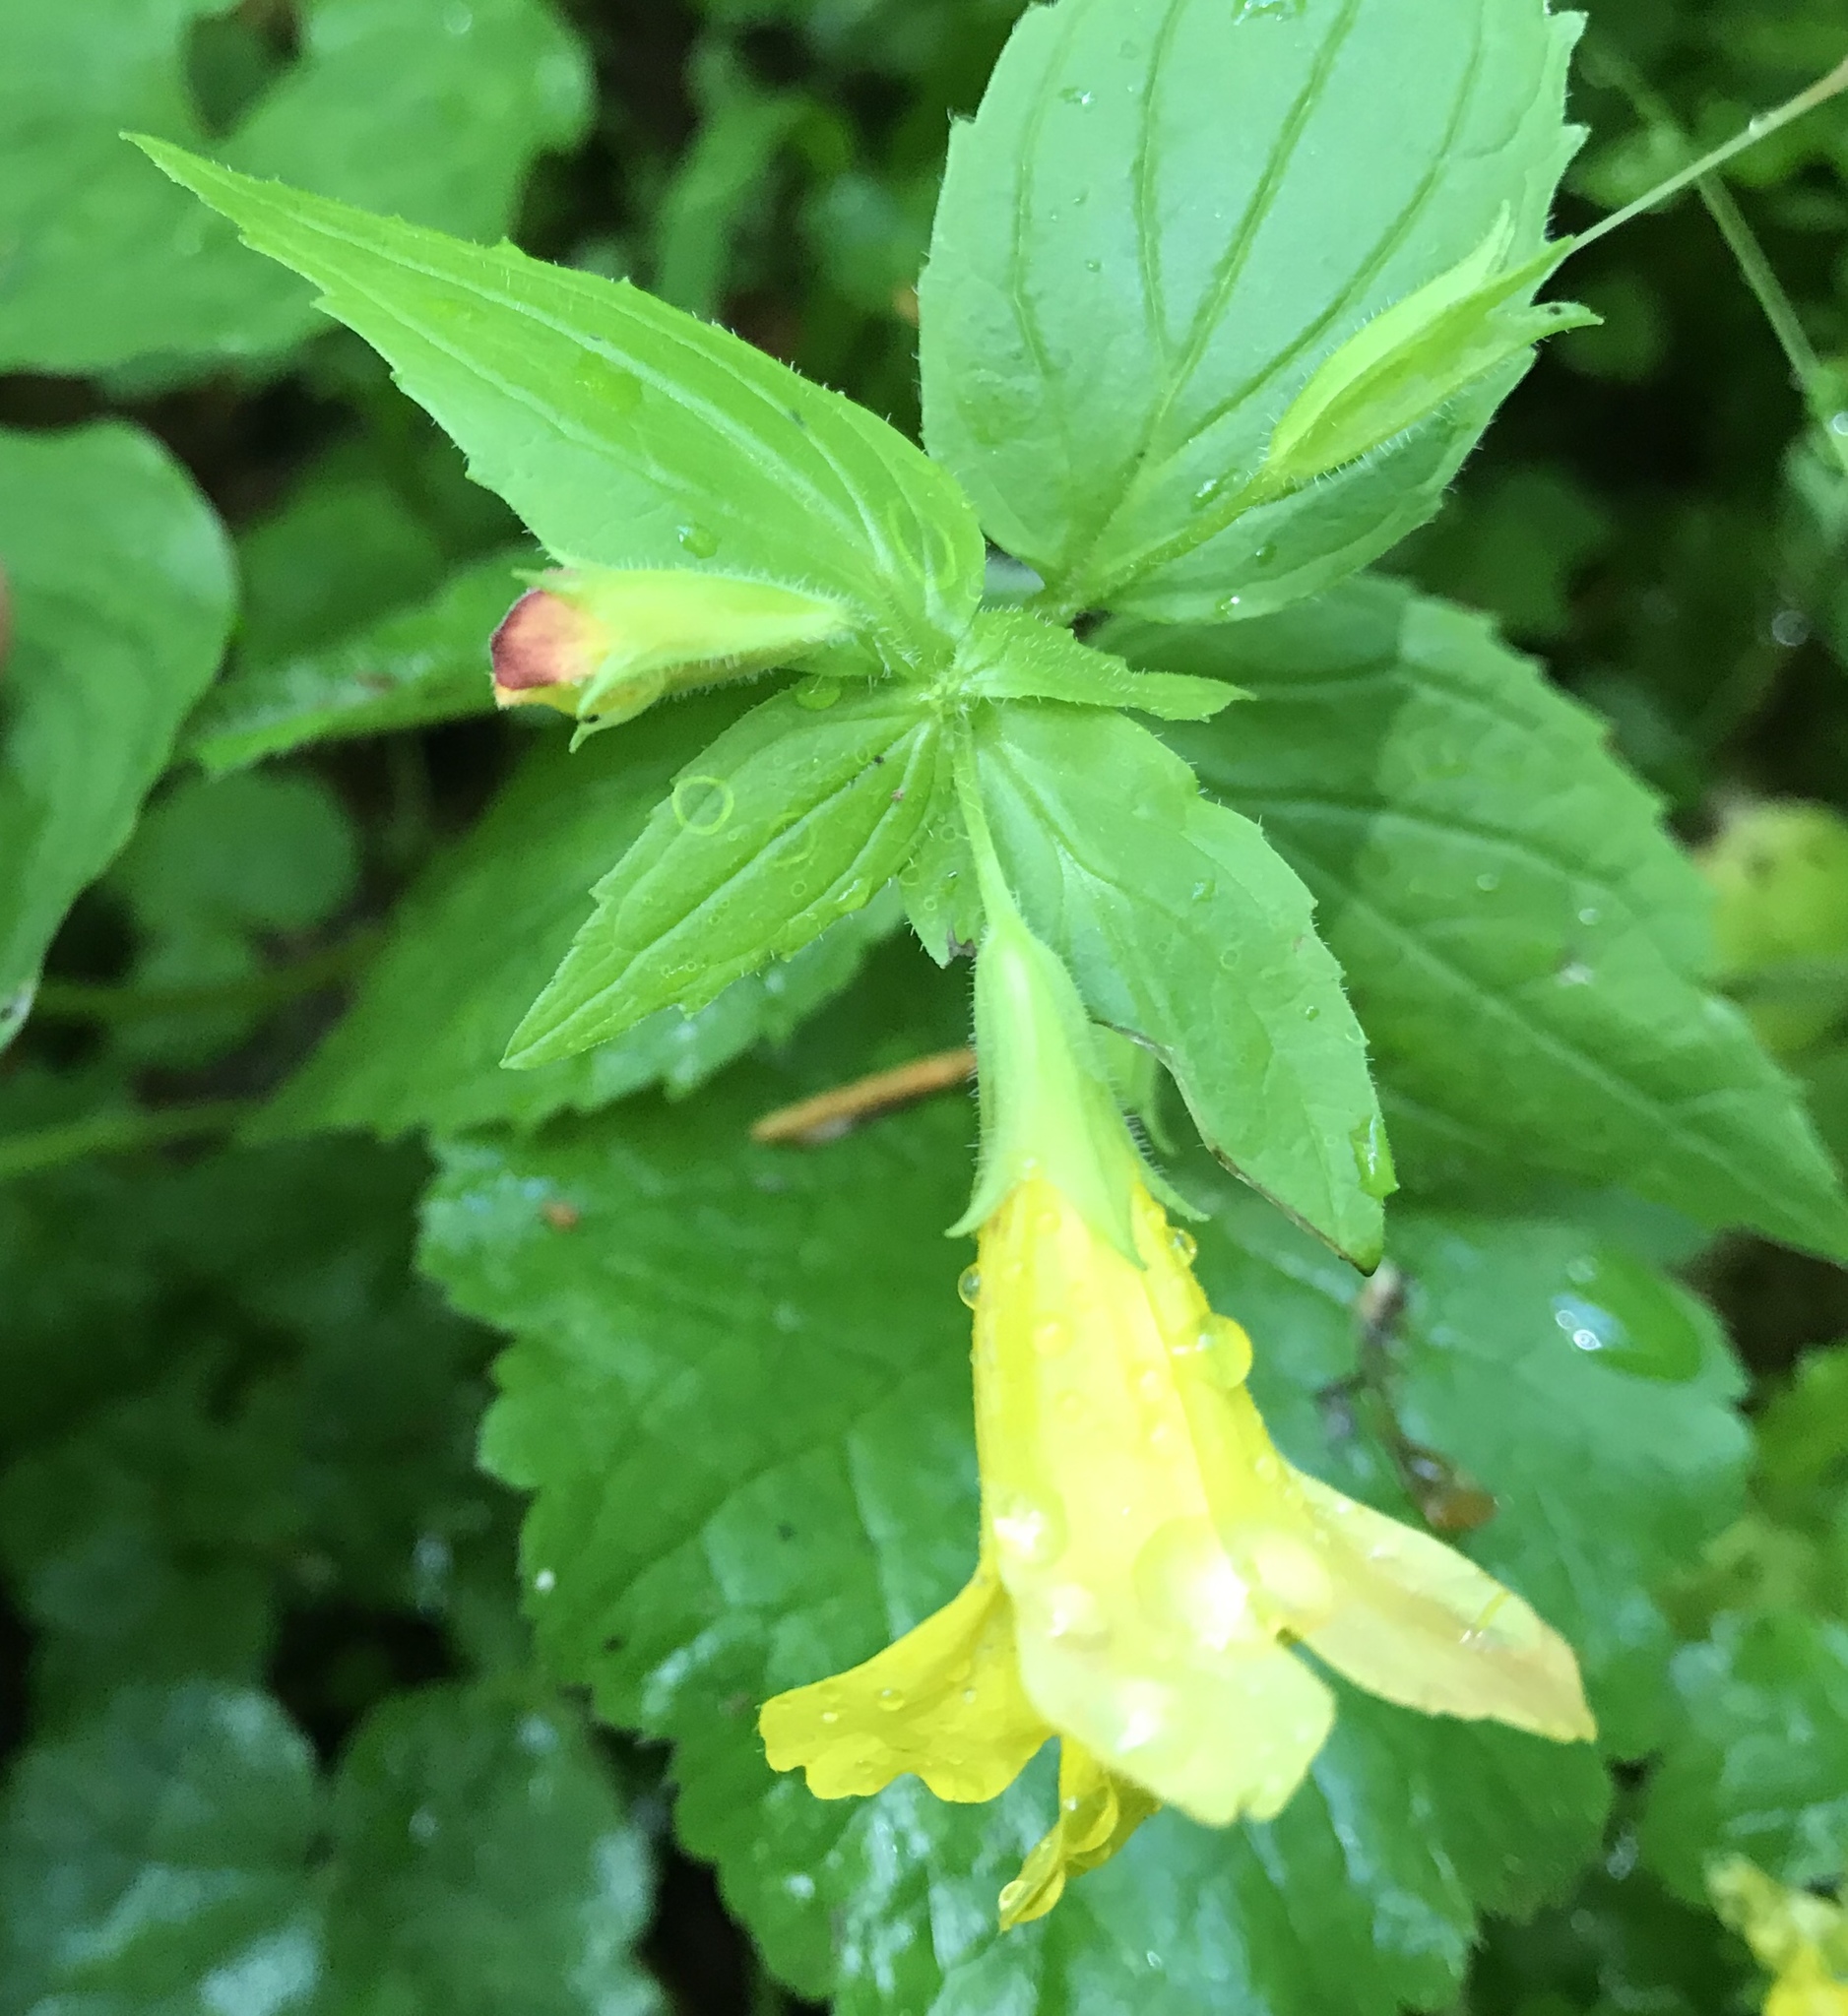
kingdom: Plantae
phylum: Tracheophyta
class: Magnoliopsida
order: Lamiales
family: Phrymaceae
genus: Erythranthe
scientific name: Erythranthe dentata
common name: Coastal monkeyflower
